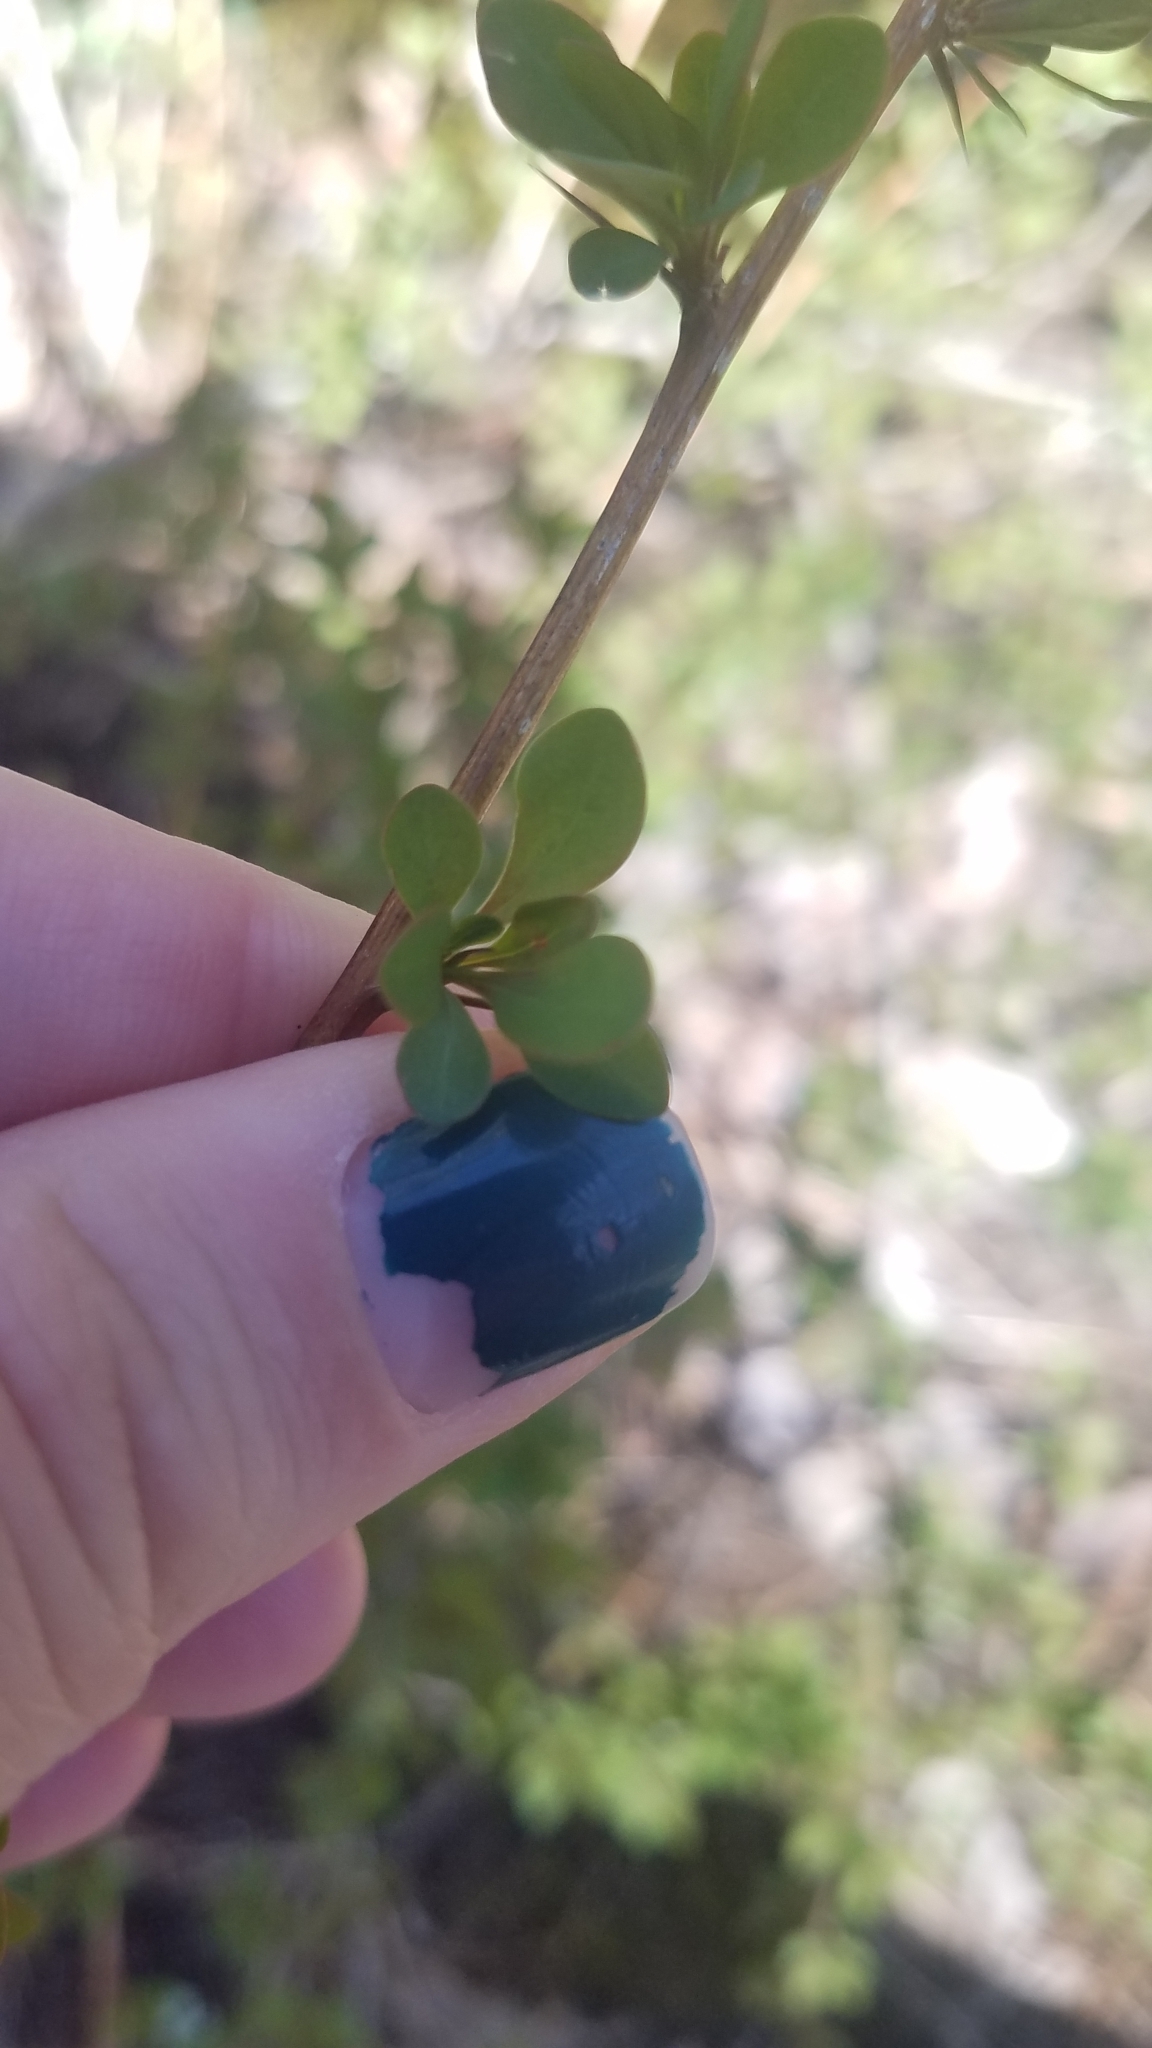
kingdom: Plantae
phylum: Tracheophyta
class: Magnoliopsida
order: Ranunculales
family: Berberidaceae
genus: Berberis
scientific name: Berberis thunbergii
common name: Japanese barberry
